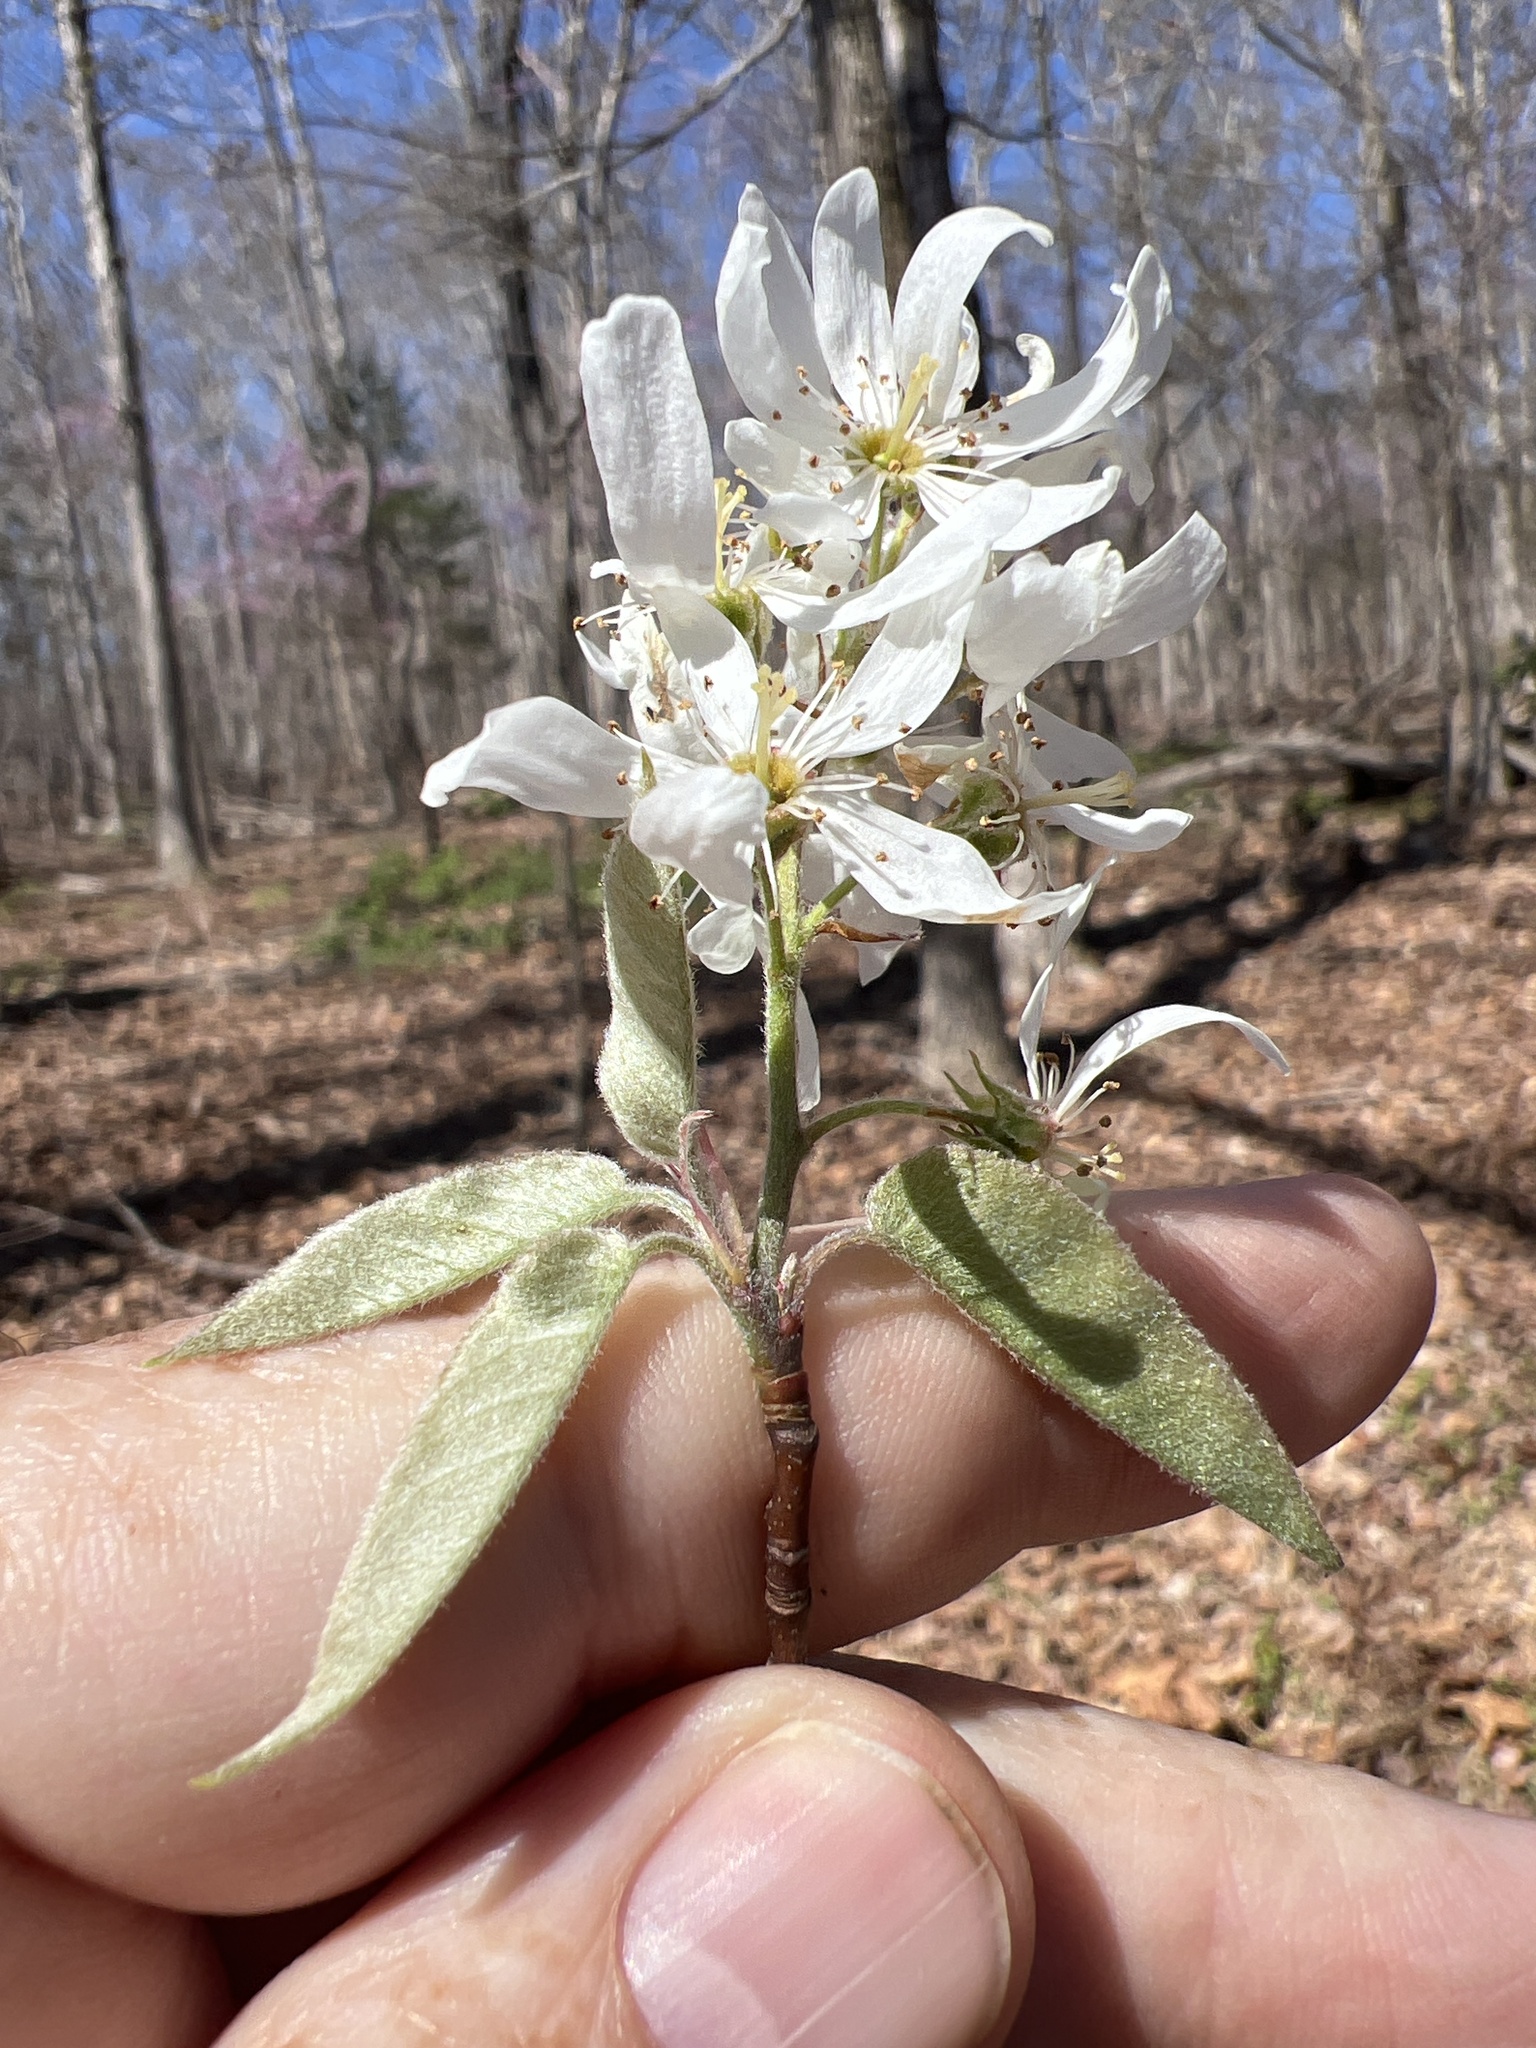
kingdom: Plantae
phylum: Tracheophyta
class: Magnoliopsida
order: Rosales
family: Rosaceae
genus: Amelanchier
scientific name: Amelanchier arborea
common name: Downy serviceberry
